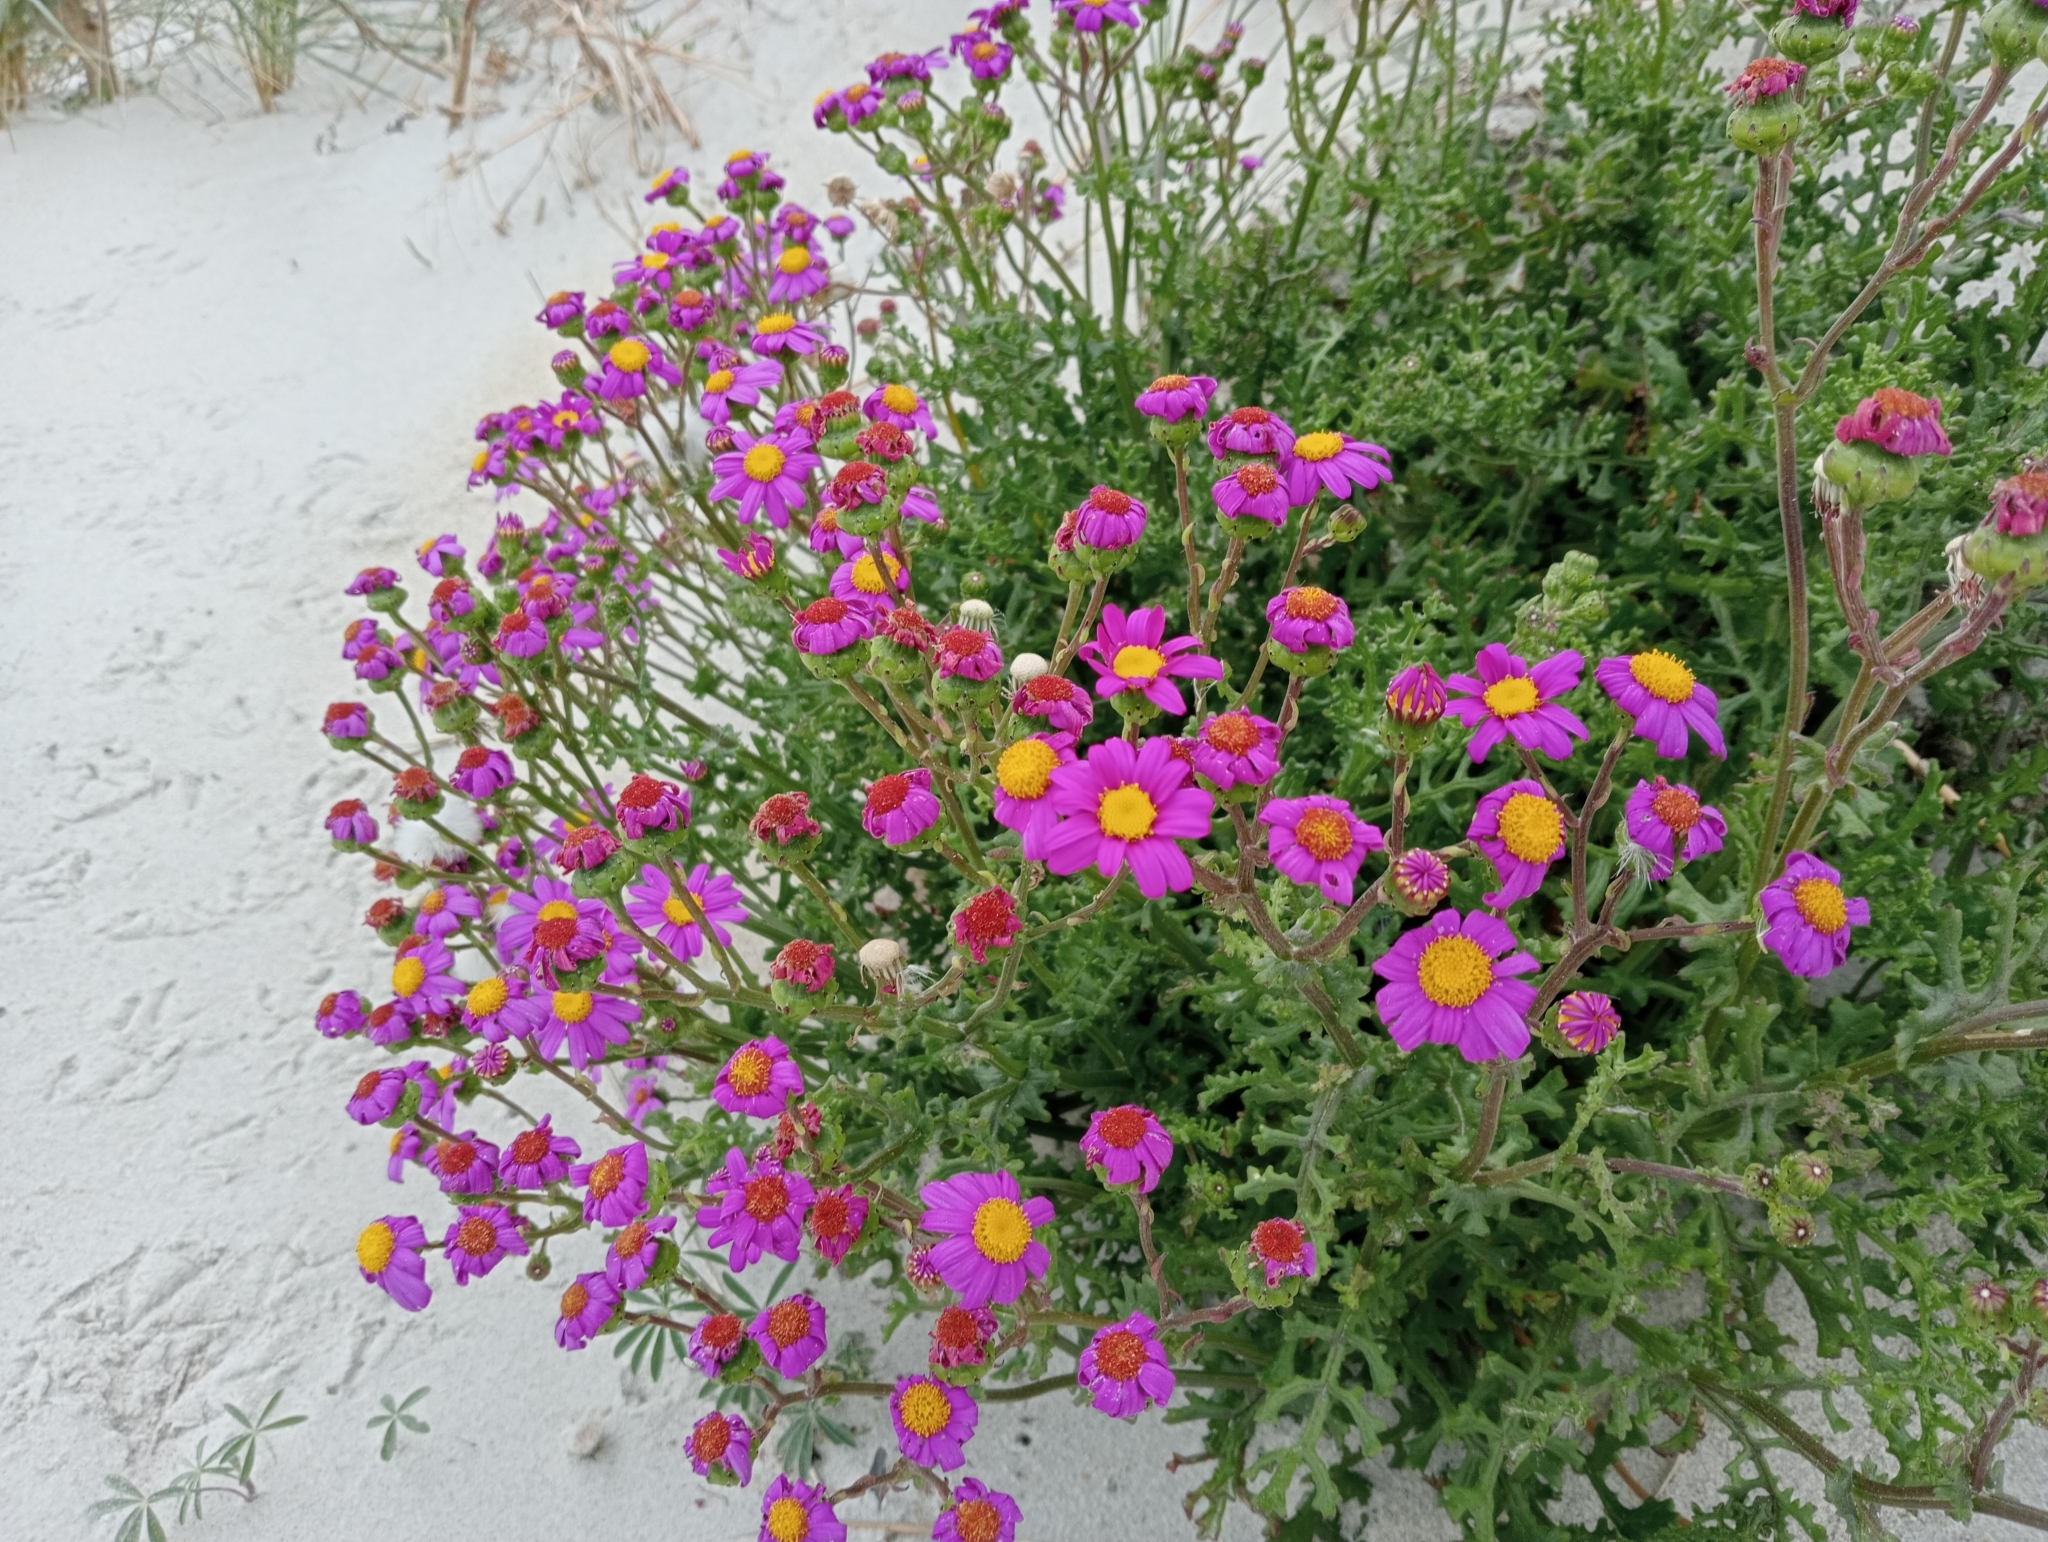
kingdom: Plantae
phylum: Tracheophyta
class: Magnoliopsida
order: Asterales
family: Asteraceae
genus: Senecio
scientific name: Senecio elegans
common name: Purple groundsel
